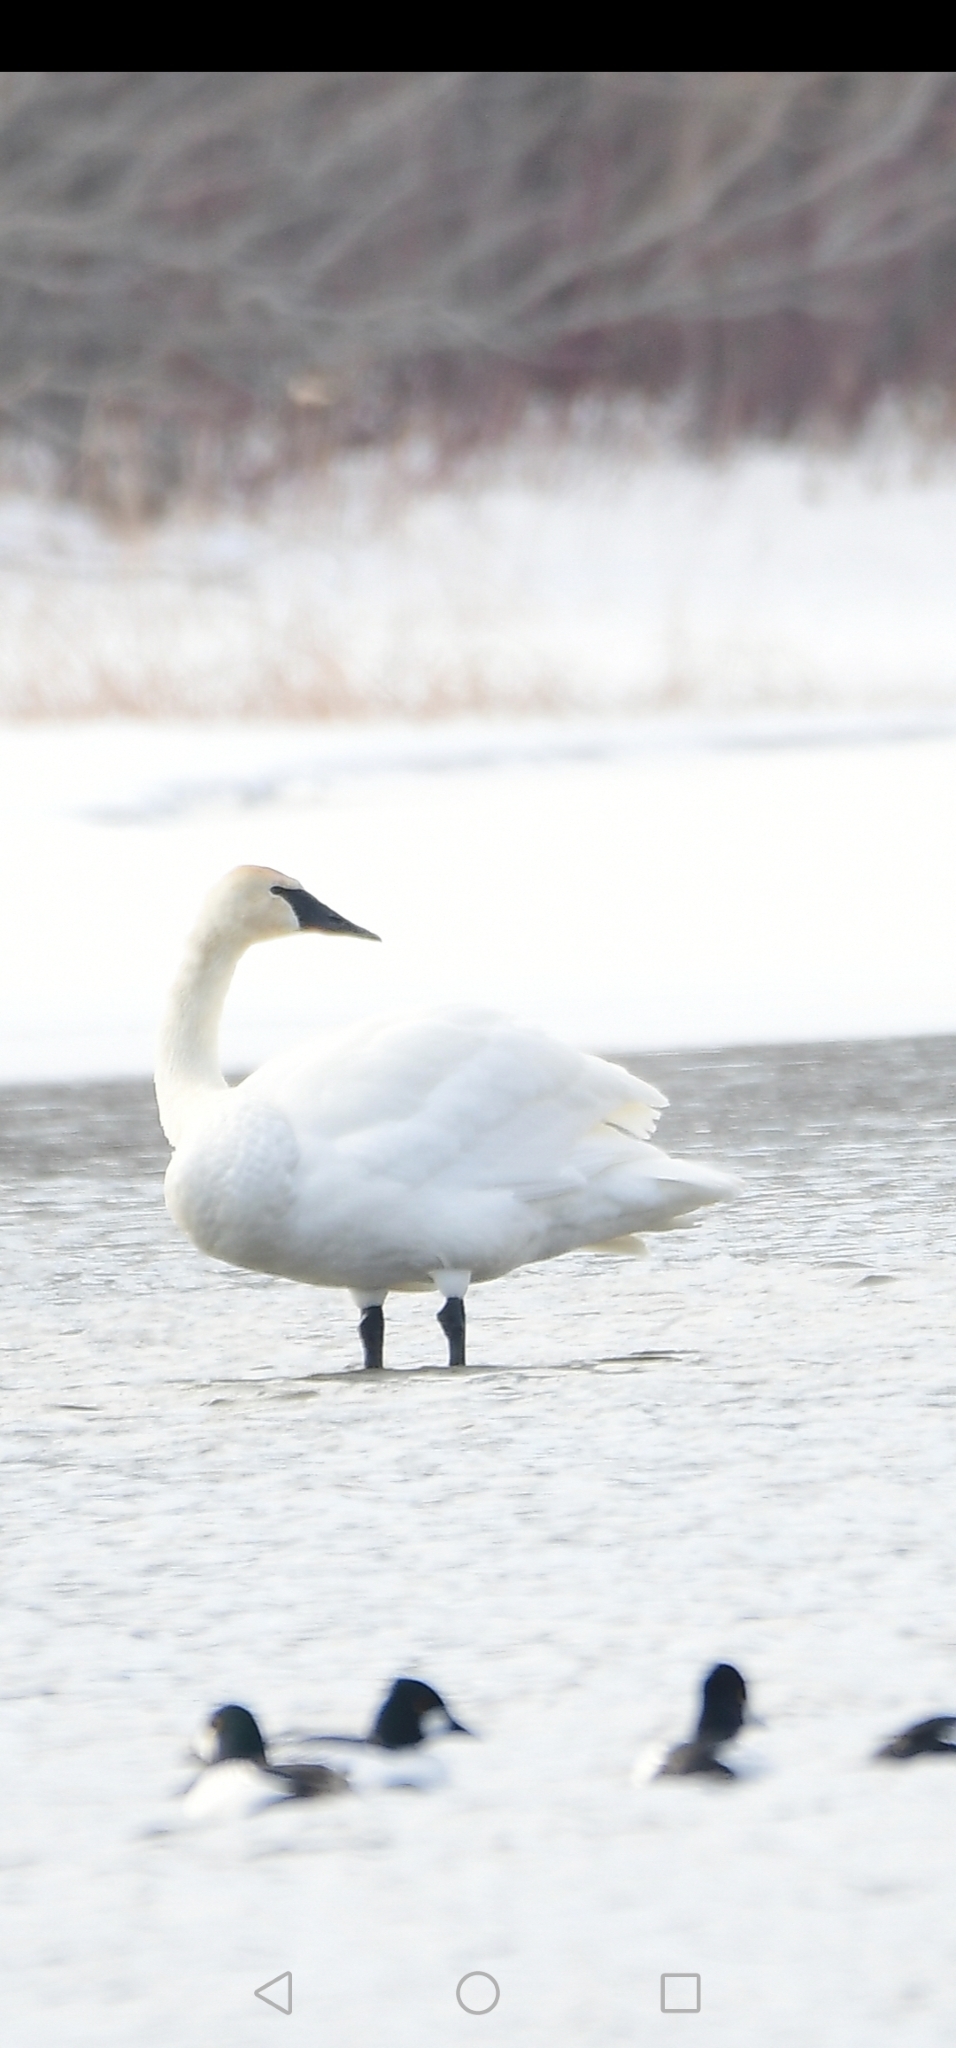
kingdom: Animalia
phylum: Chordata
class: Aves
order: Anseriformes
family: Anatidae
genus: Cygnus
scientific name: Cygnus buccinator
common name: Trumpeter swan
